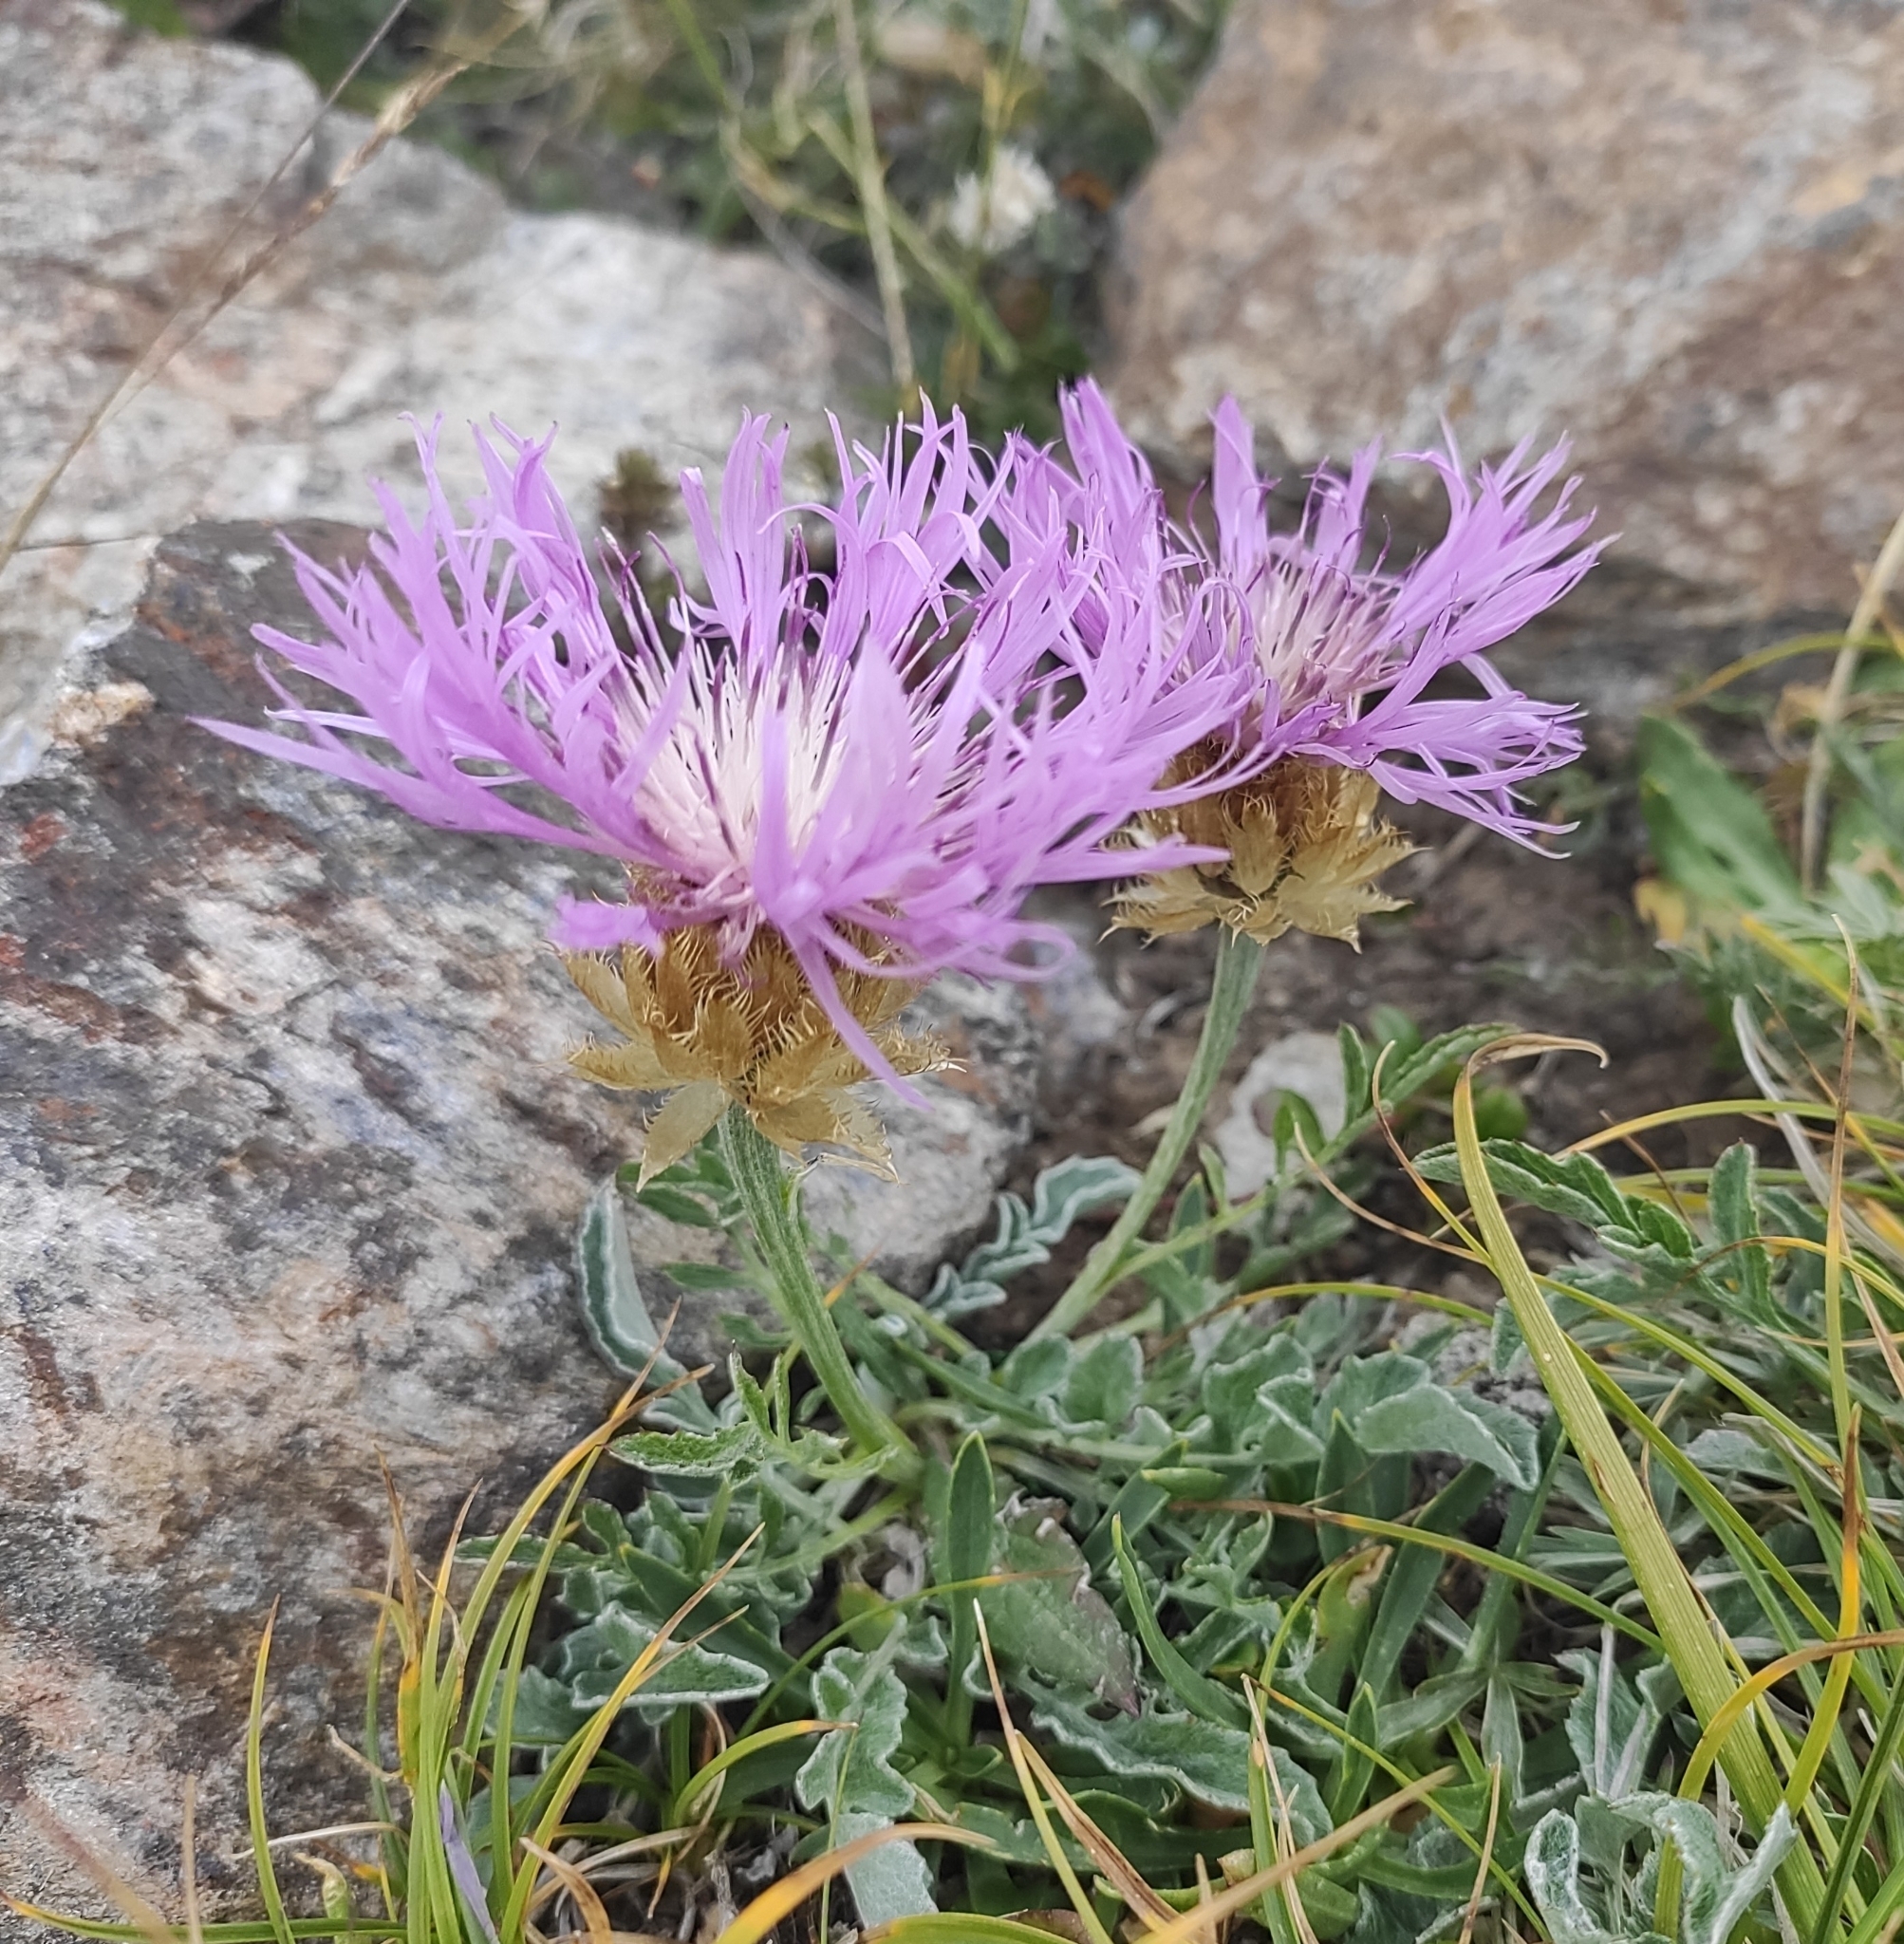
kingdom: Plantae
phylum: Tracheophyta
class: Magnoliopsida
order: Asterales
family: Asteraceae
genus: Psephellus
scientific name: Psephellus caucasicus
